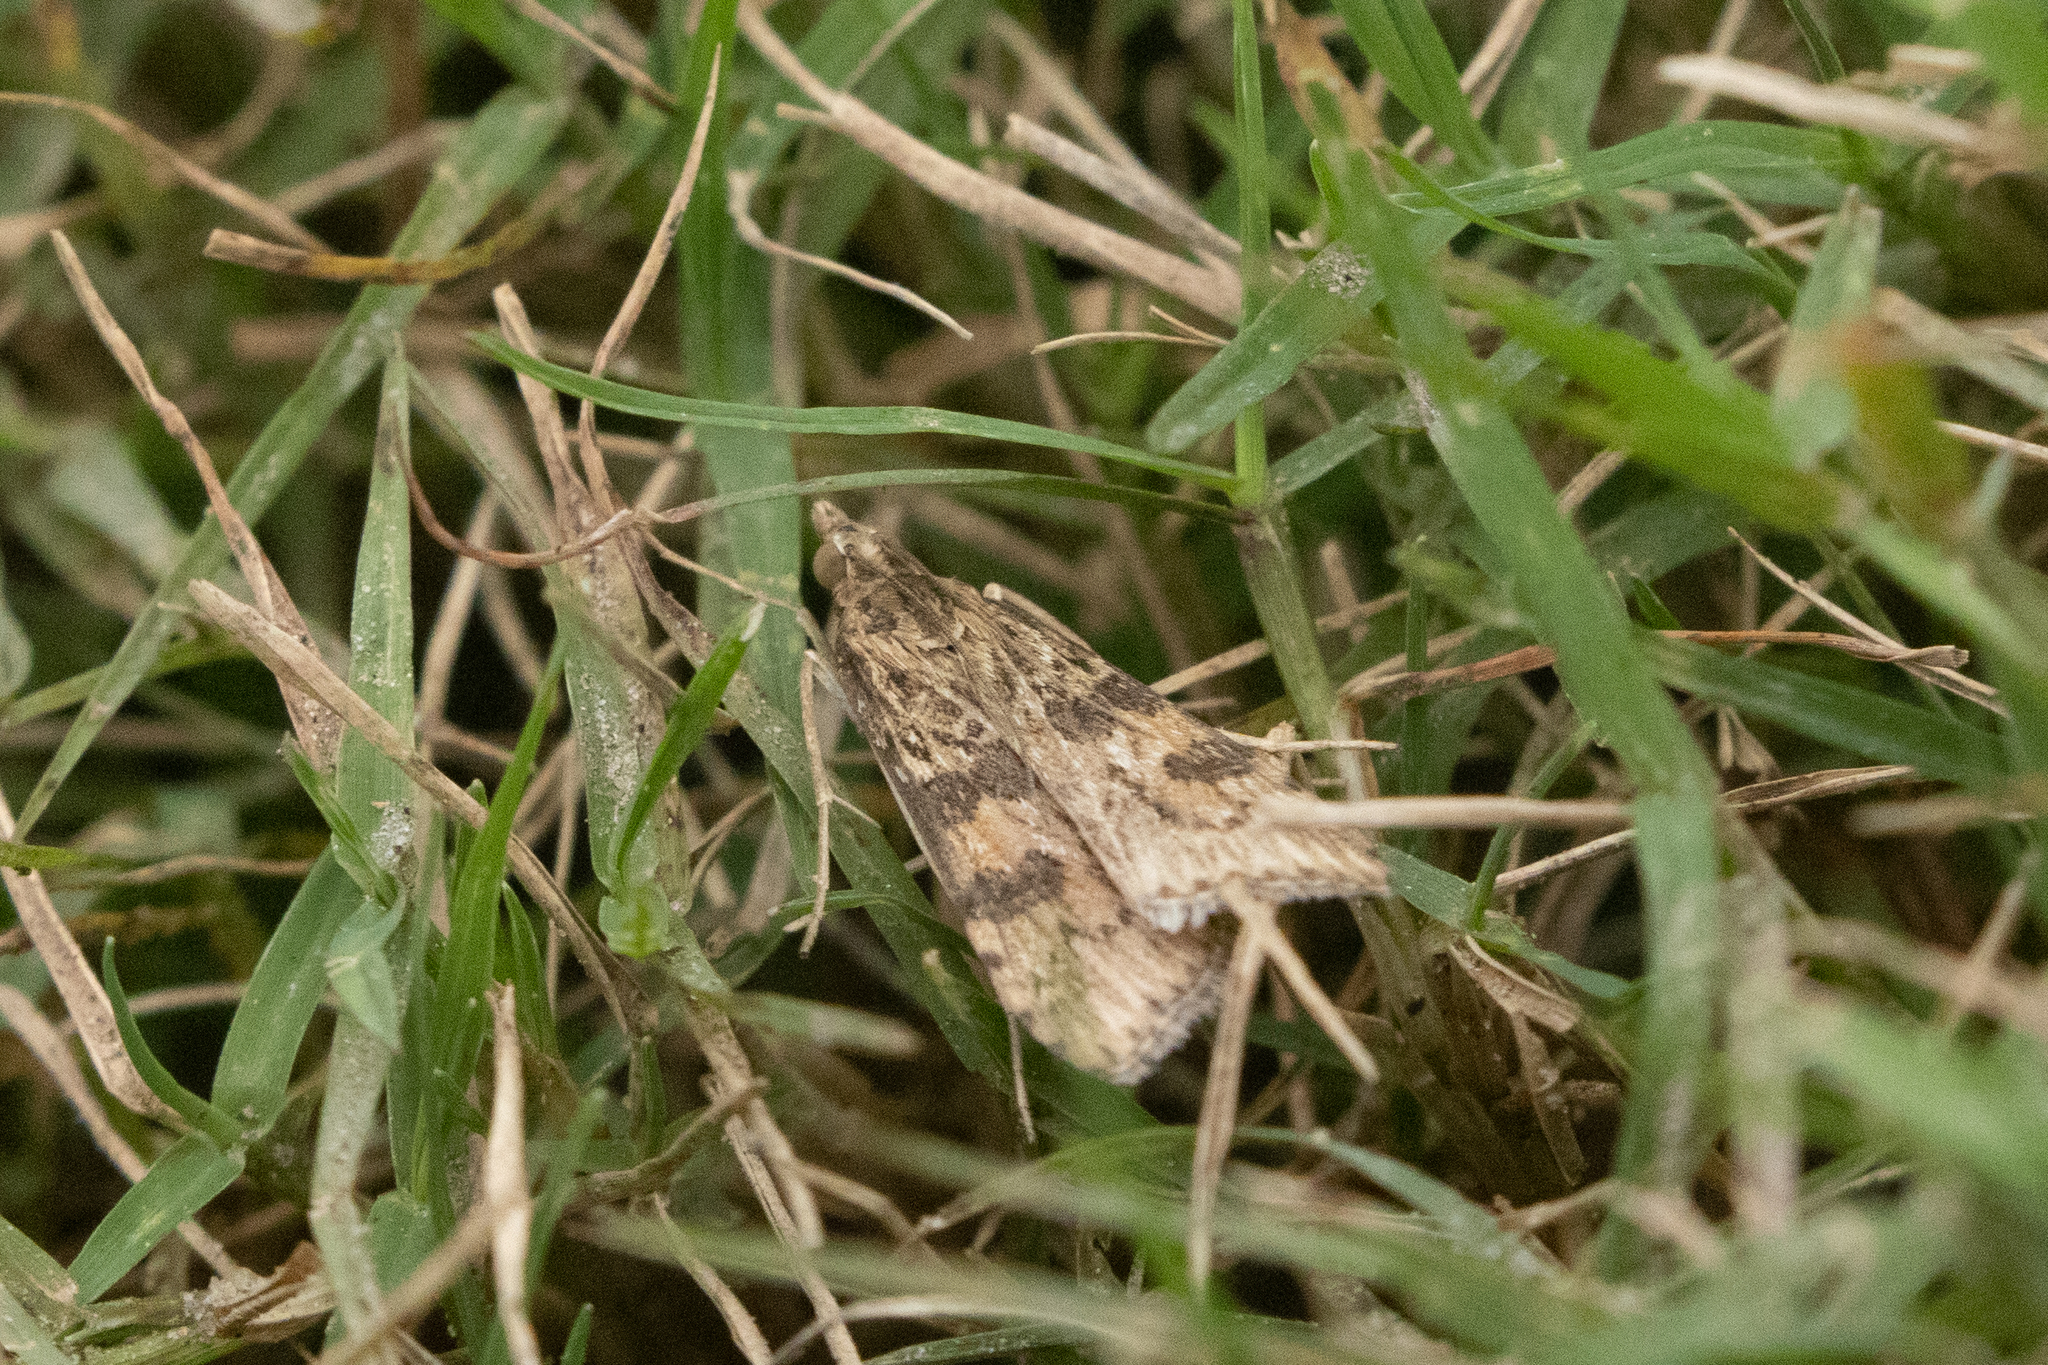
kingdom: Animalia
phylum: Arthropoda
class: Insecta
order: Lepidoptera
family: Crambidae
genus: Nomophila
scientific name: Nomophila nearctica
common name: American rush veneer
